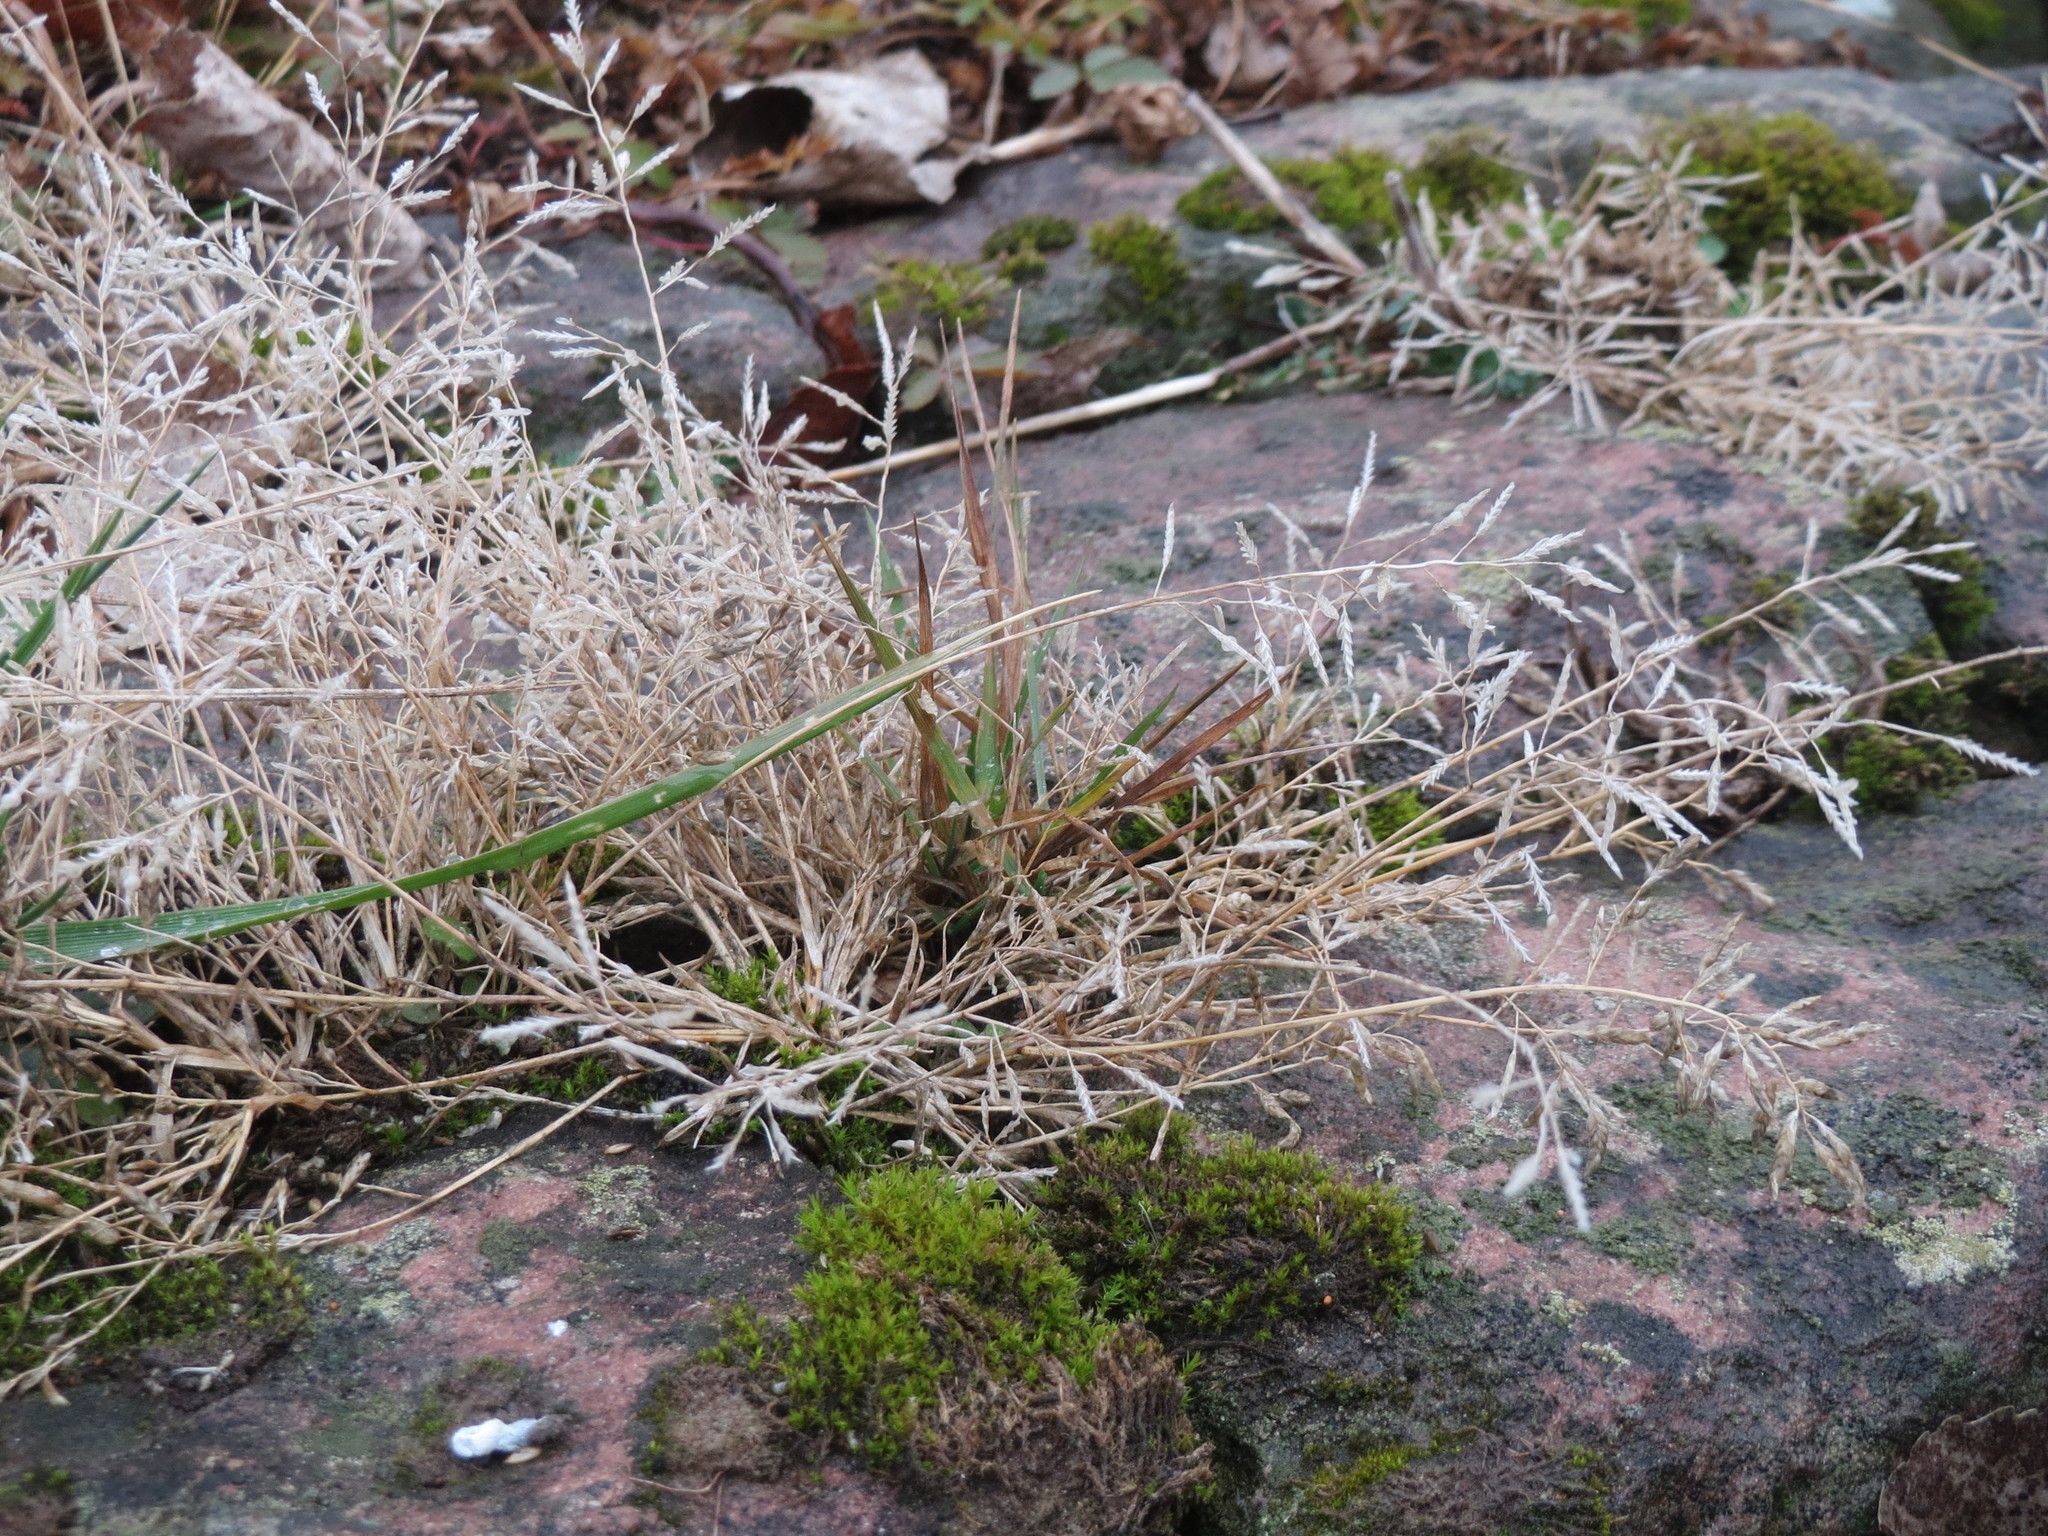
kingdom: Plantae
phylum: Tracheophyta
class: Liliopsida
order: Poales
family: Poaceae
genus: Corynephorus
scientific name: Corynephorus canescens
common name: Grey hair-grass
